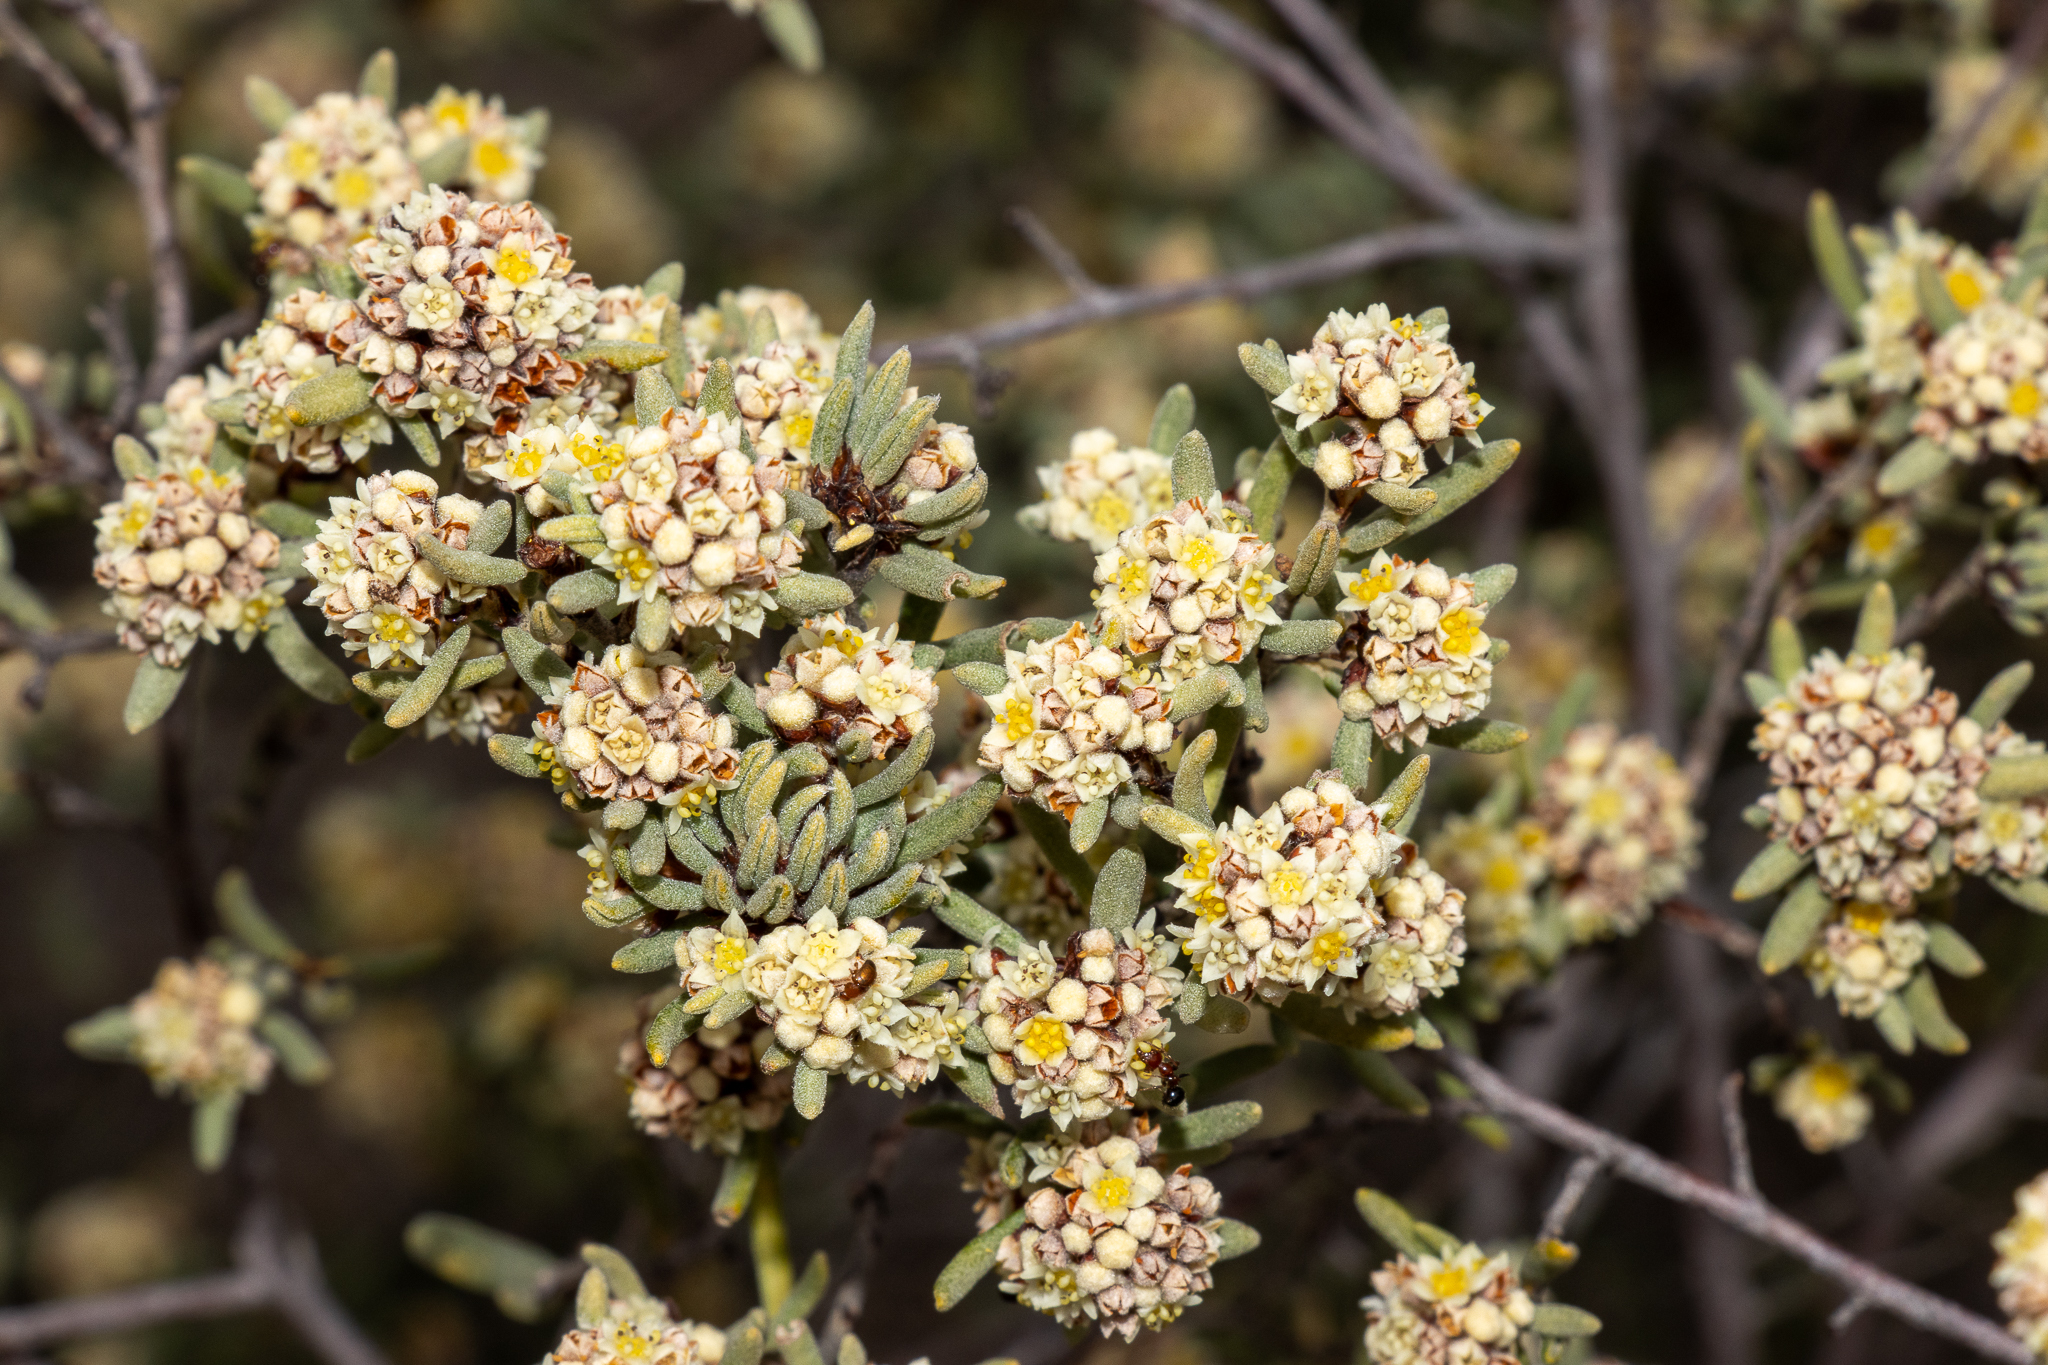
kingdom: Plantae
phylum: Tracheophyta
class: Magnoliopsida
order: Rosales
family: Rhamnaceae
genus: Spyridium
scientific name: Spyridium subochreatum
